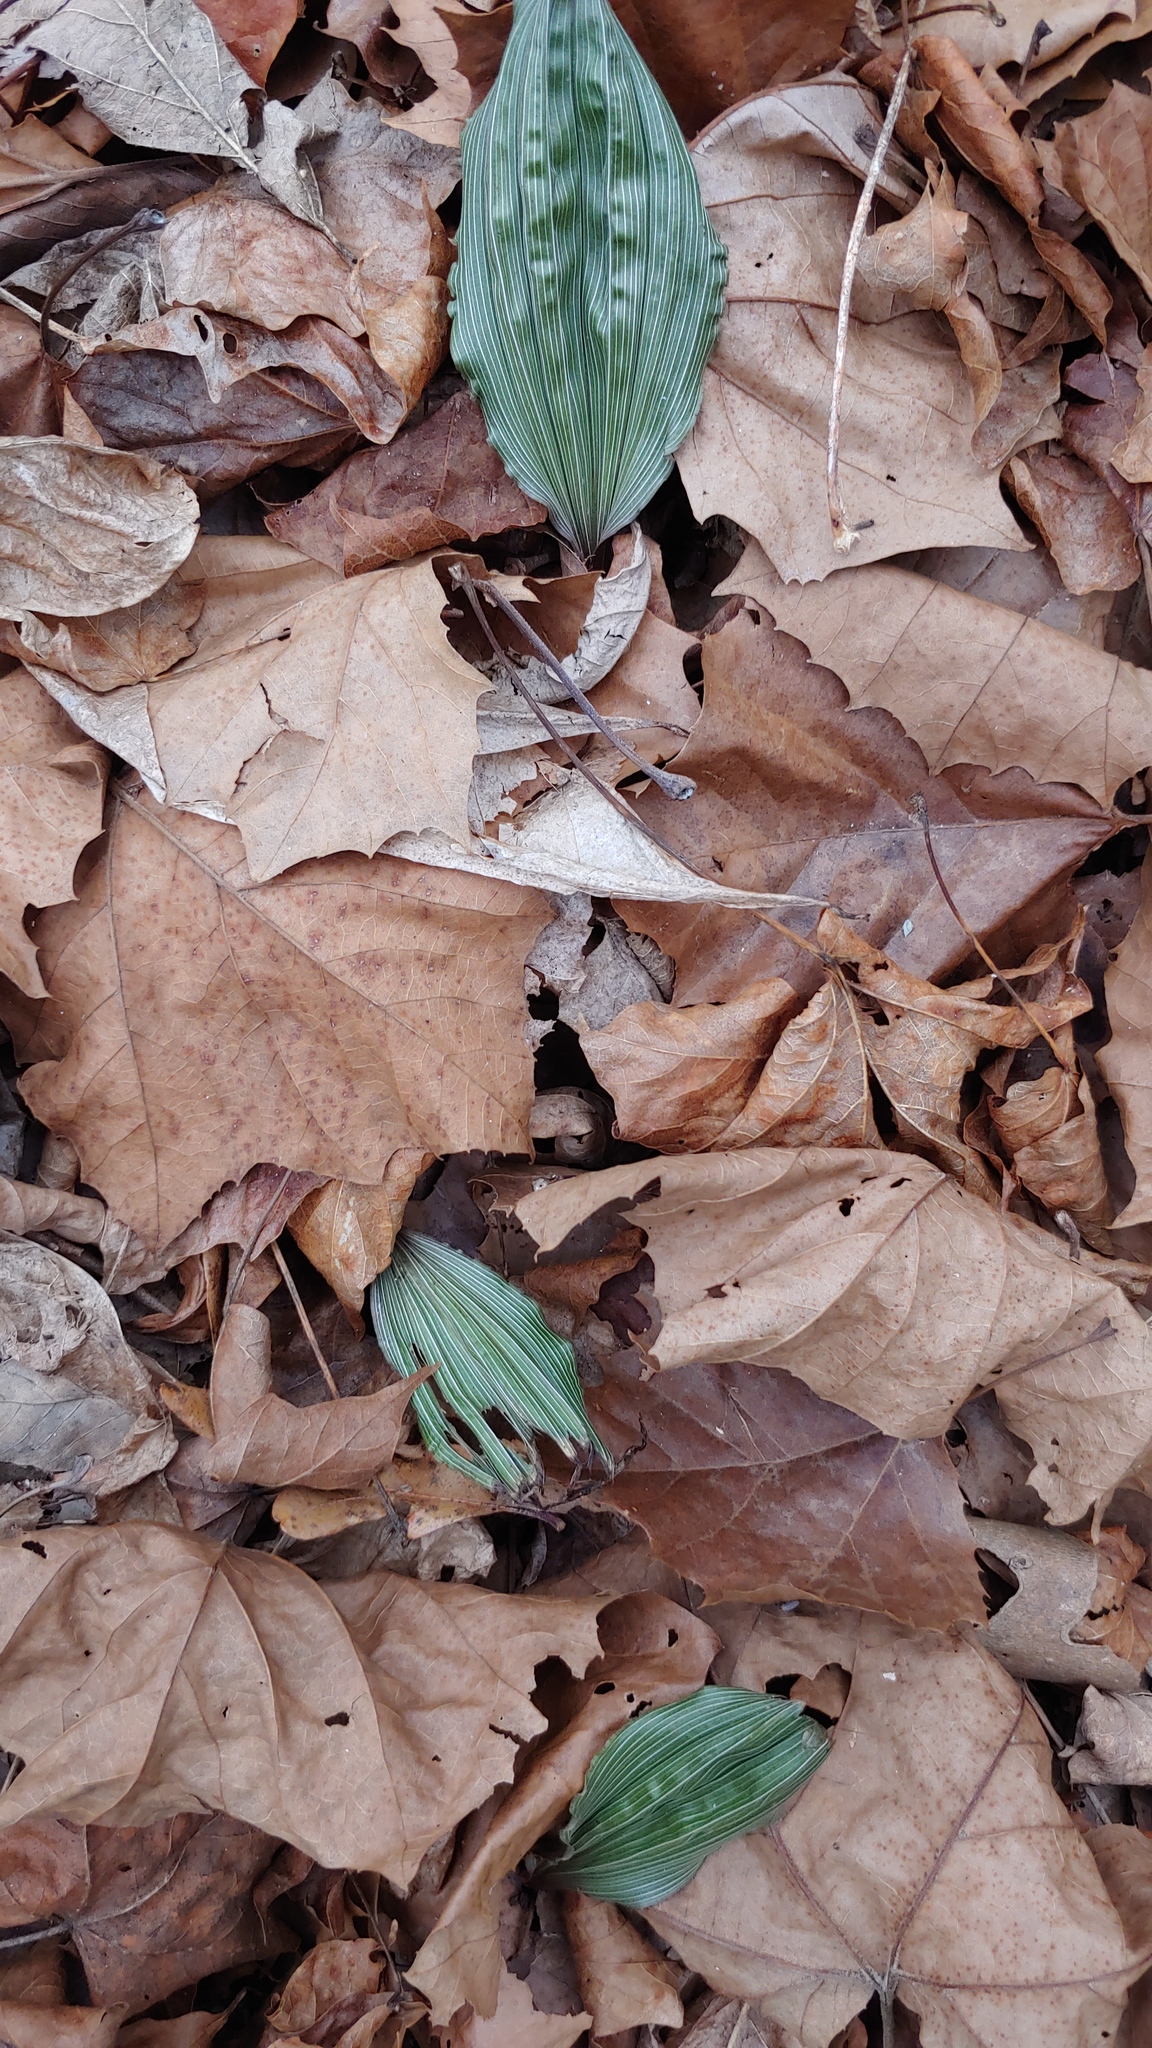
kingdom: Plantae
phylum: Tracheophyta
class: Liliopsida
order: Asparagales
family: Orchidaceae
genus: Aplectrum
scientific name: Aplectrum hyemale
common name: Adam-and-eve
